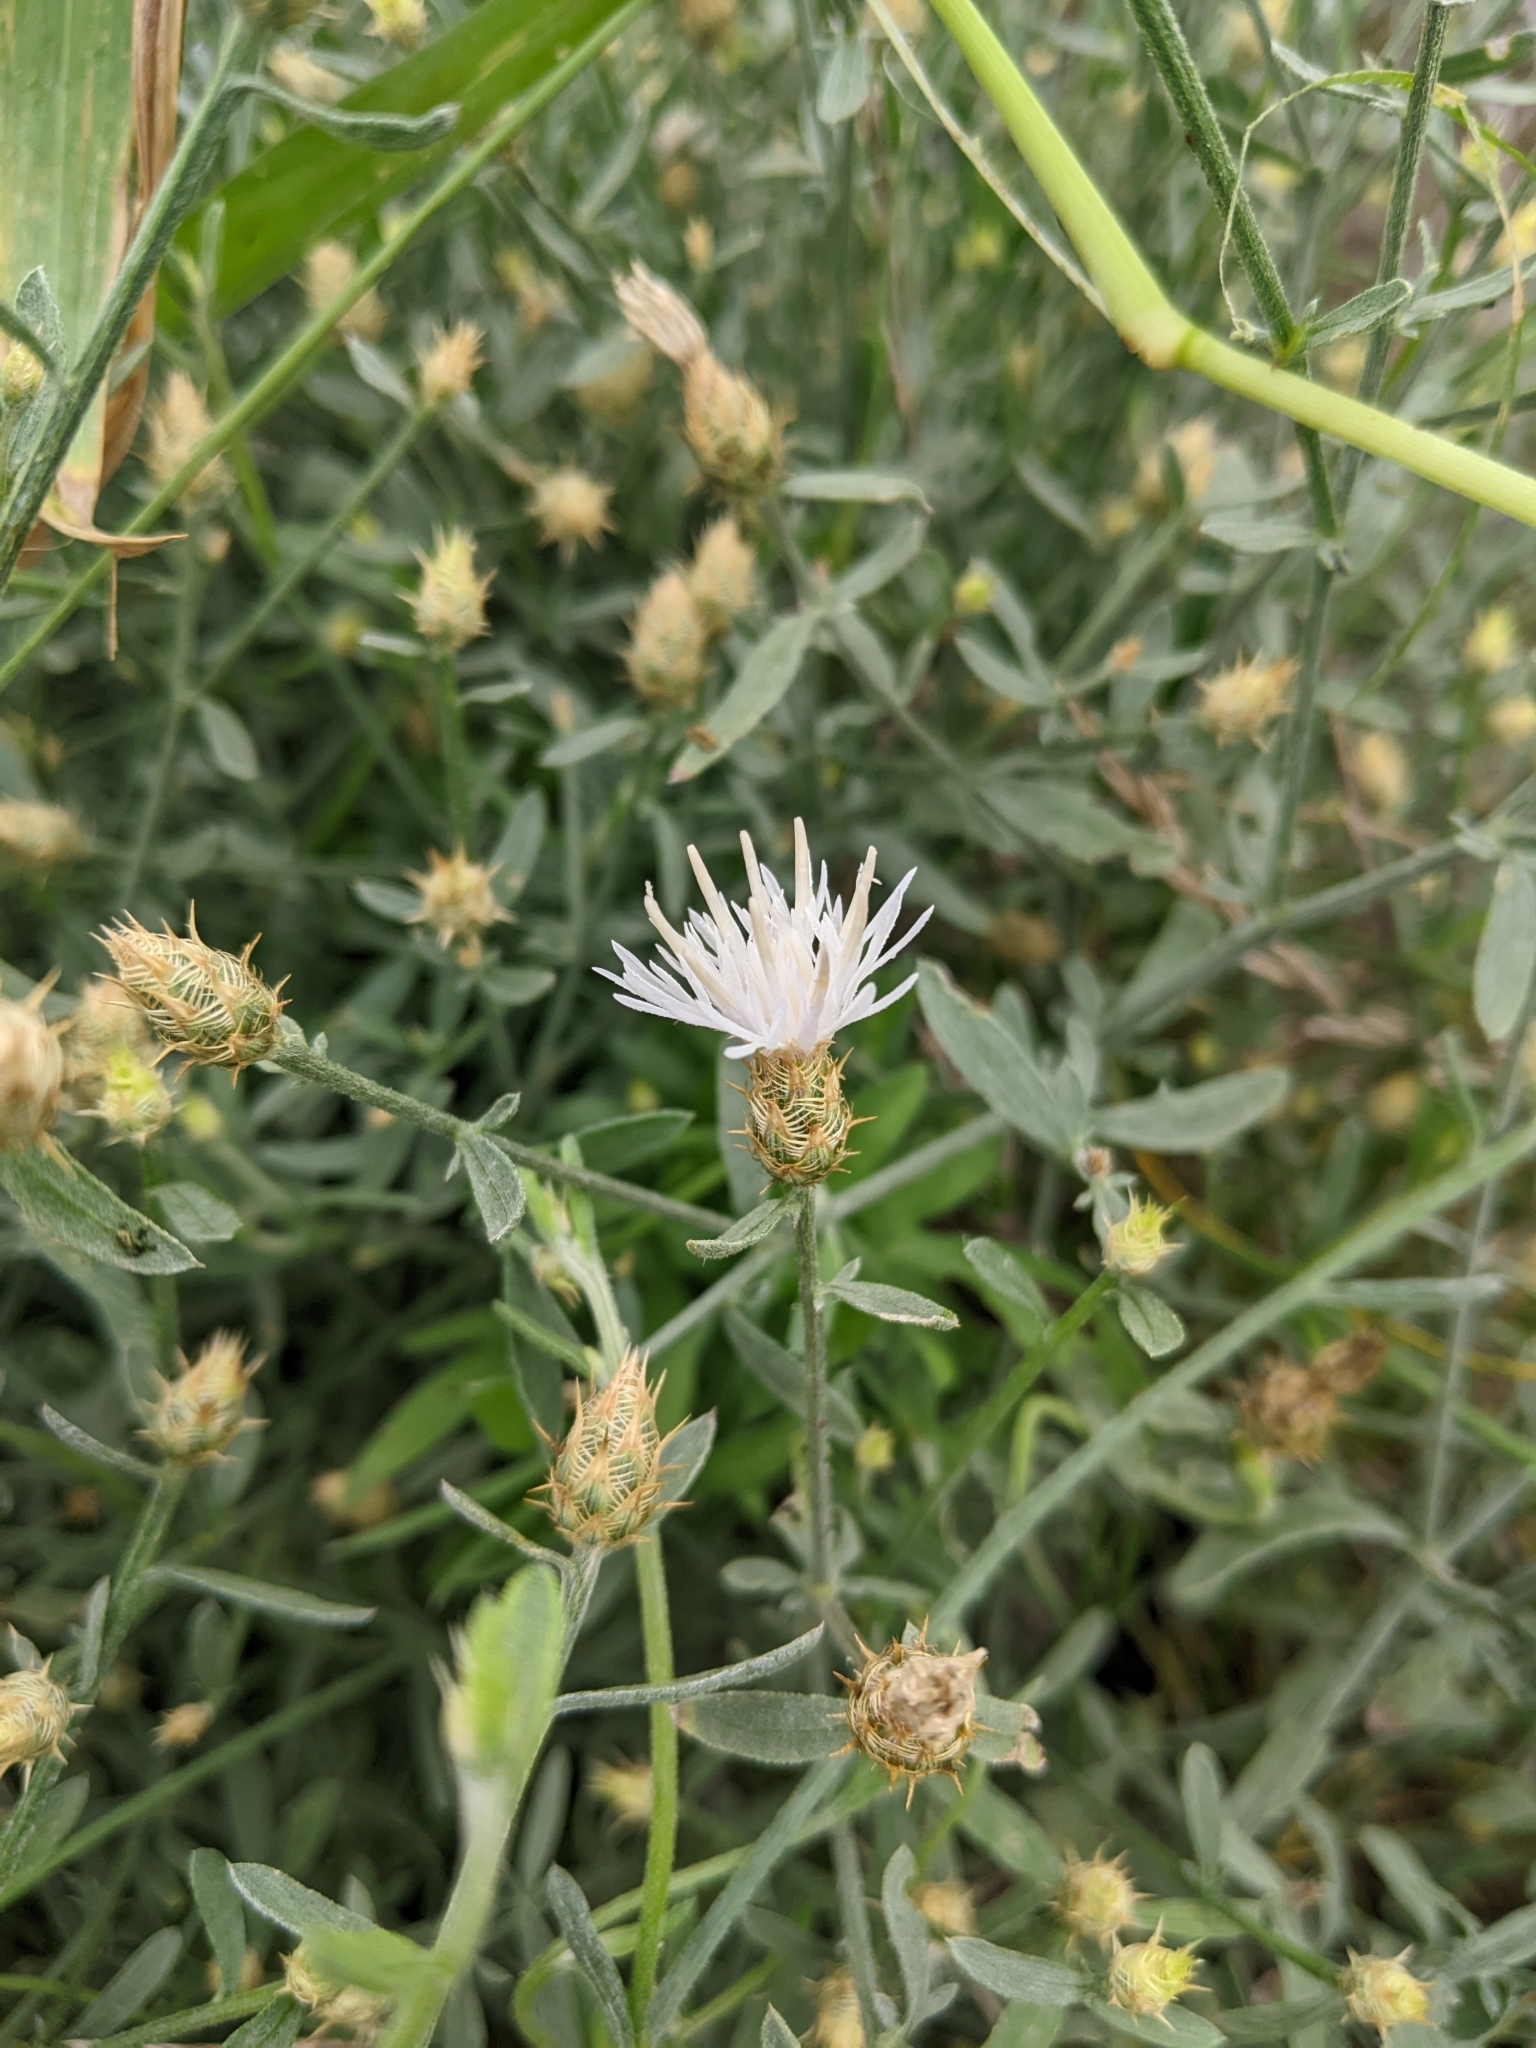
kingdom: Plantae
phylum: Tracheophyta
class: Magnoliopsida
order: Asterales
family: Asteraceae
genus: Centaurea
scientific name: Centaurea diffusa
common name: Diffuse knapweed
